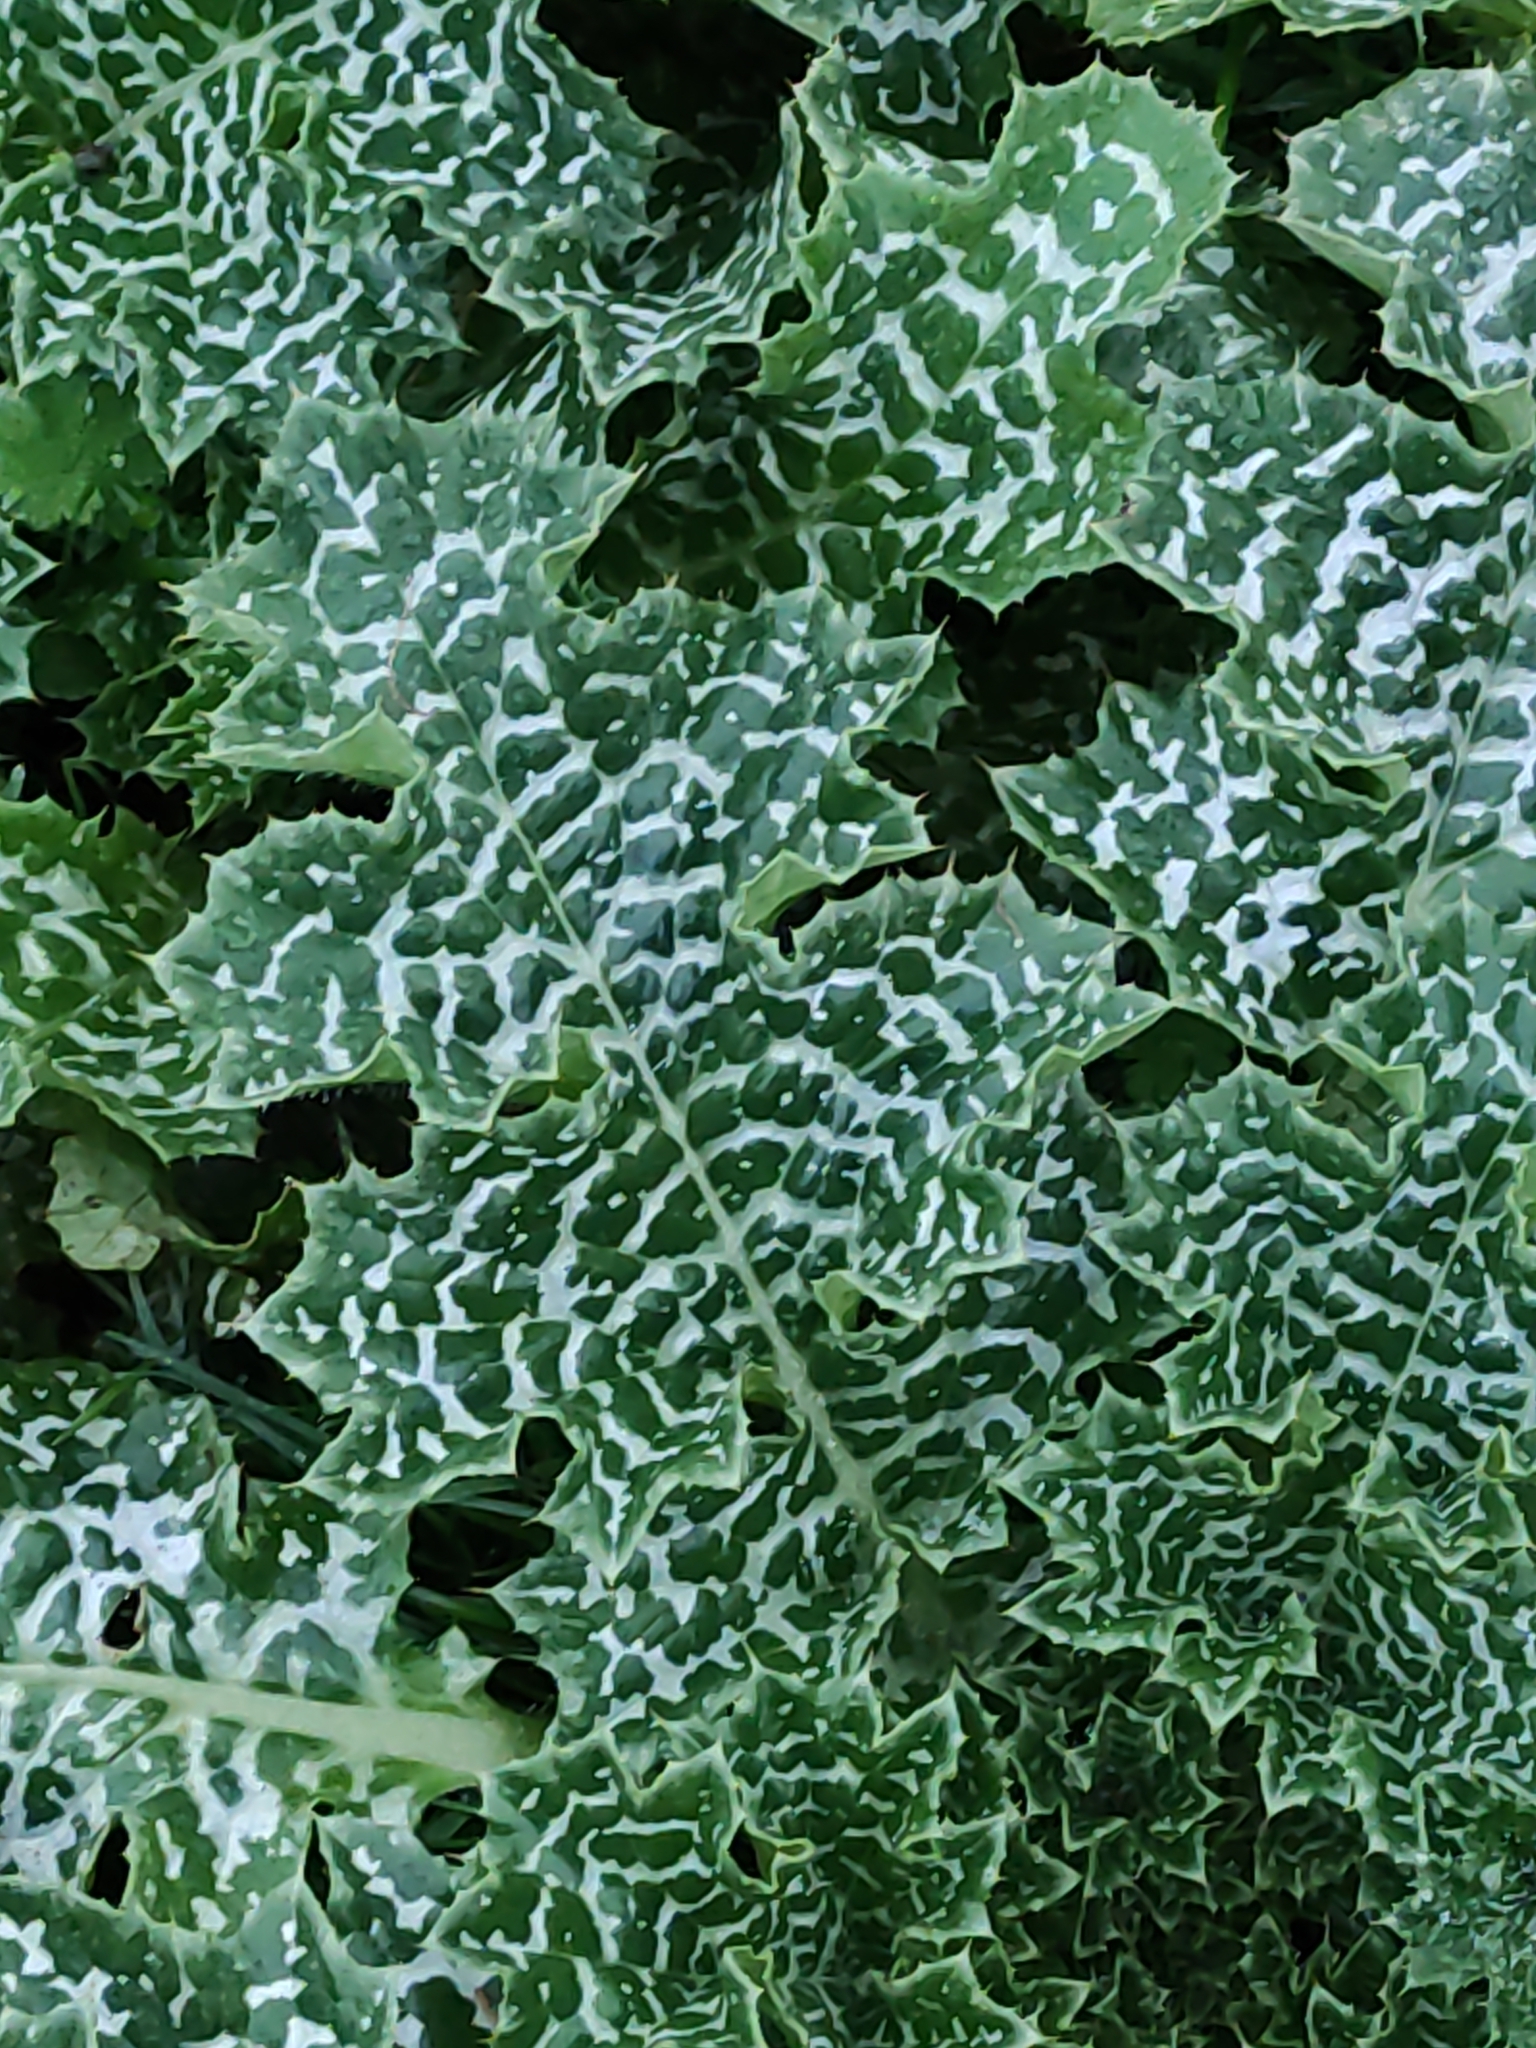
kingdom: Plantae
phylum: Tracheophyta
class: Magnoliopsida
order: Asterales
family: Asteraceae
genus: Silybum
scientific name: Silybum marianum
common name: Milk thistle
